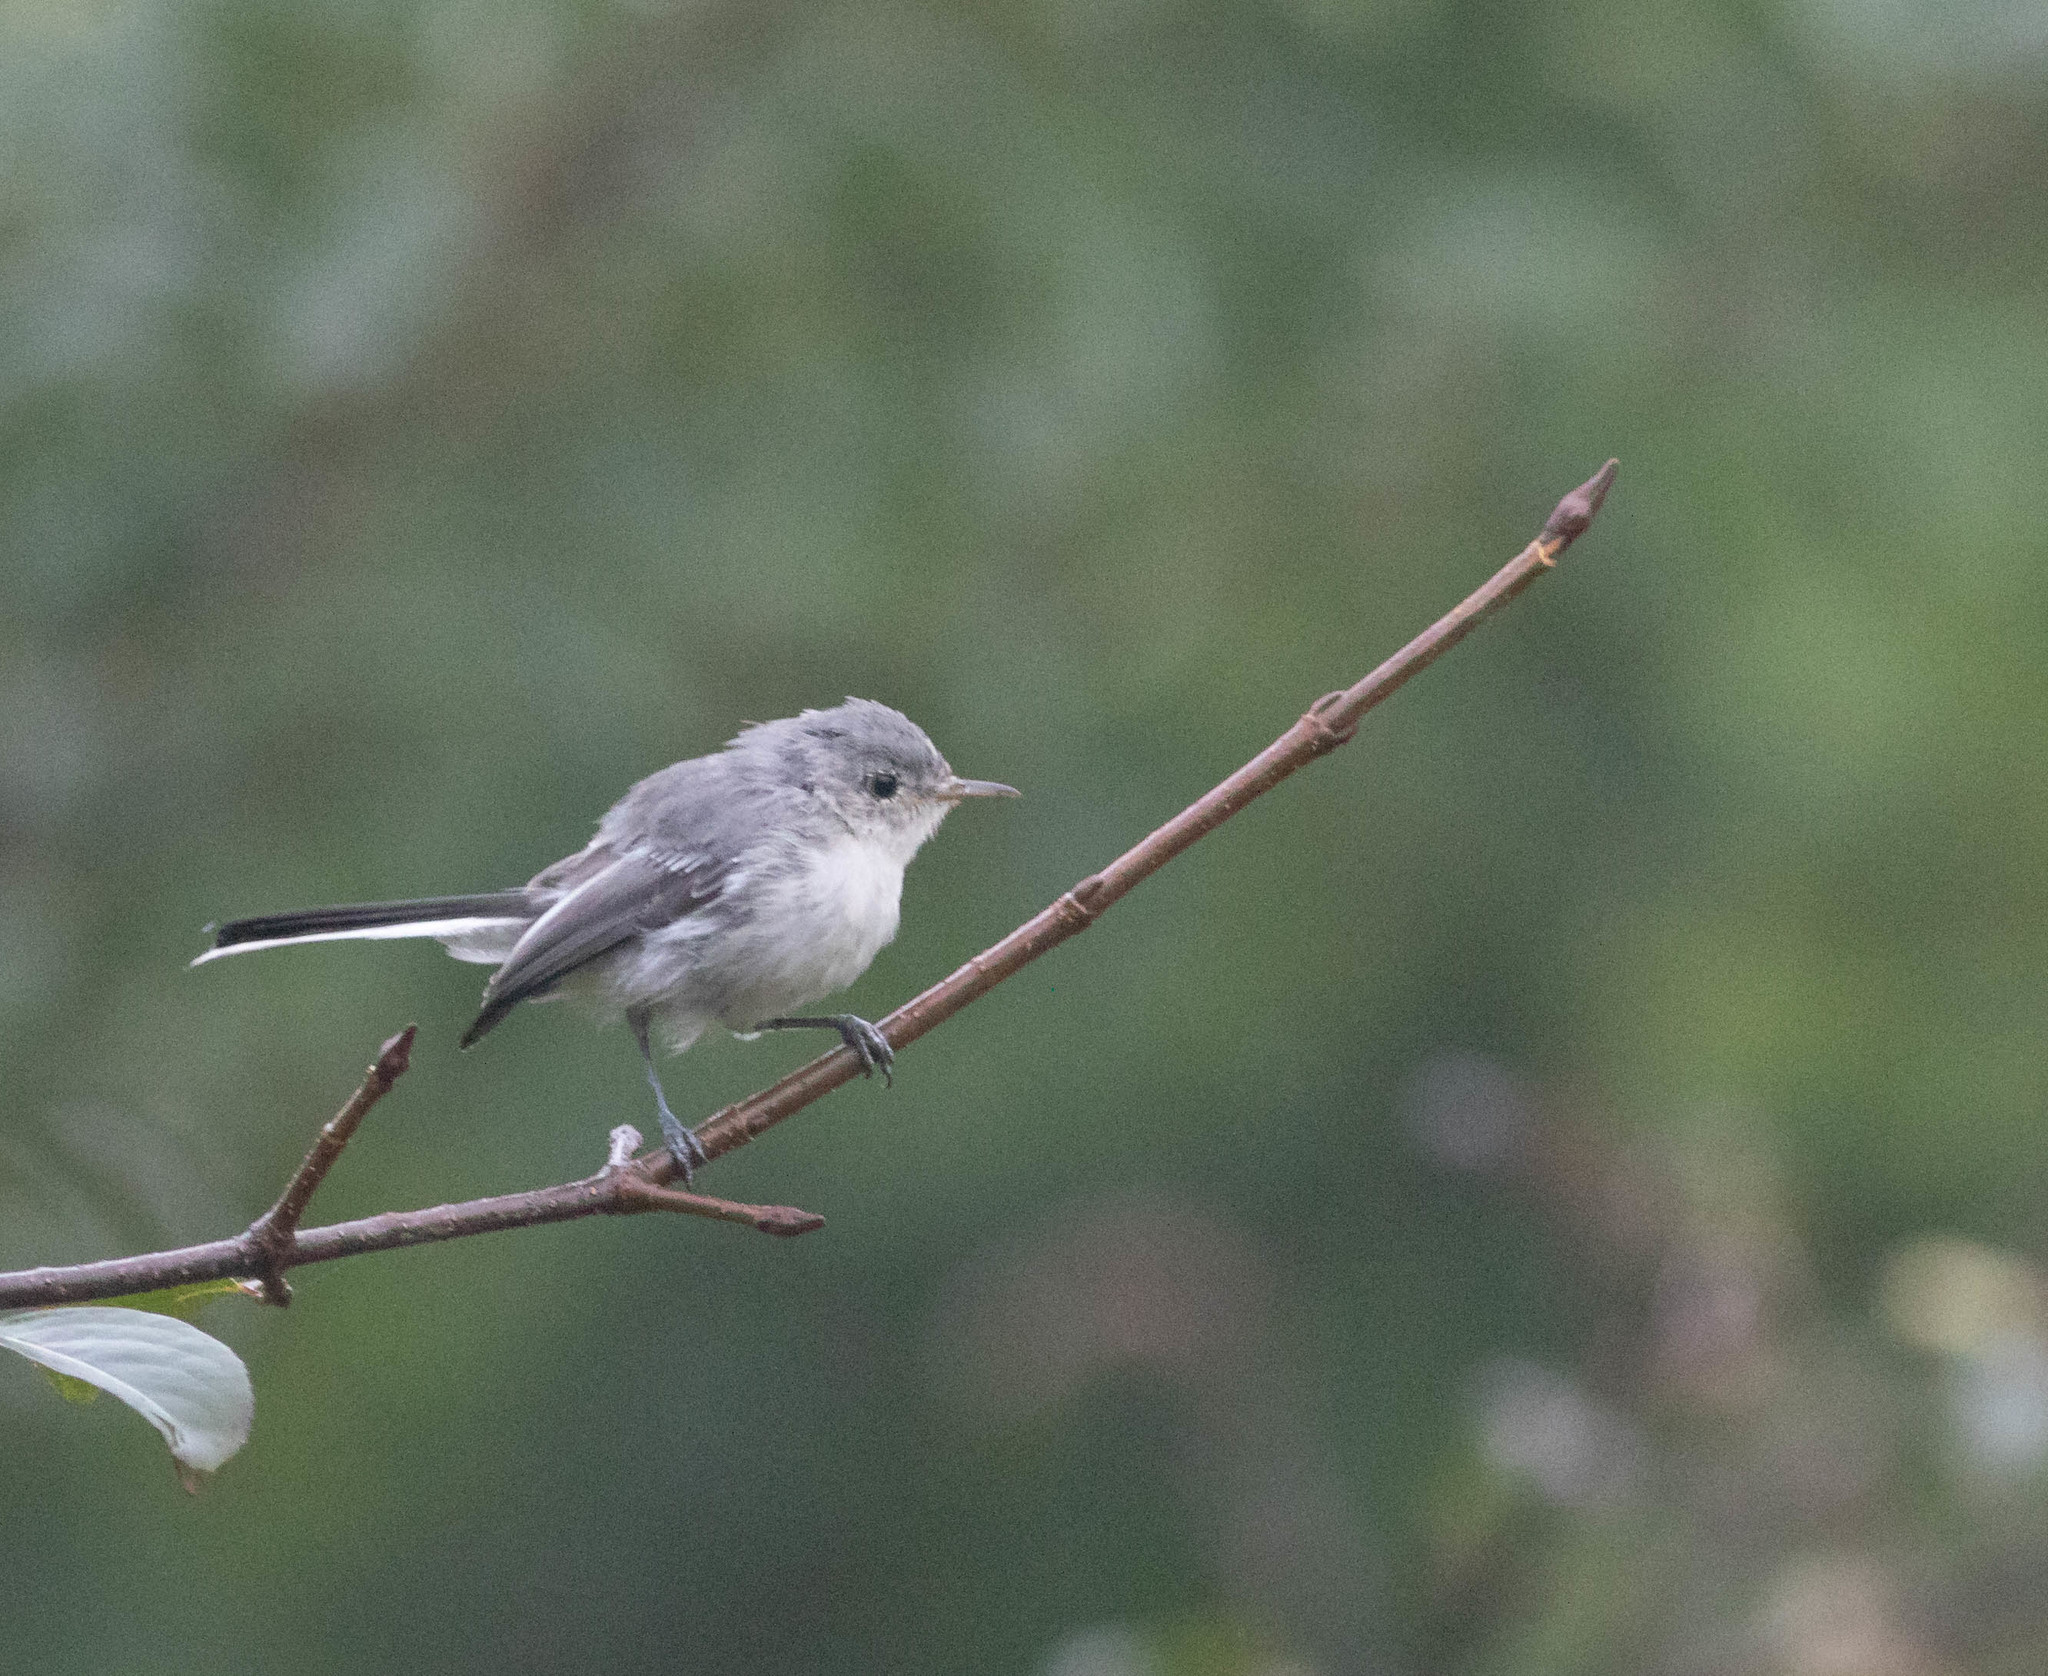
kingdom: Animalia
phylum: Chordata
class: Aves
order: Passeriformes
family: Polioptilidae
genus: Polioptila
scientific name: Polioptila caerulea
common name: Blue-gray gnatcatcher
